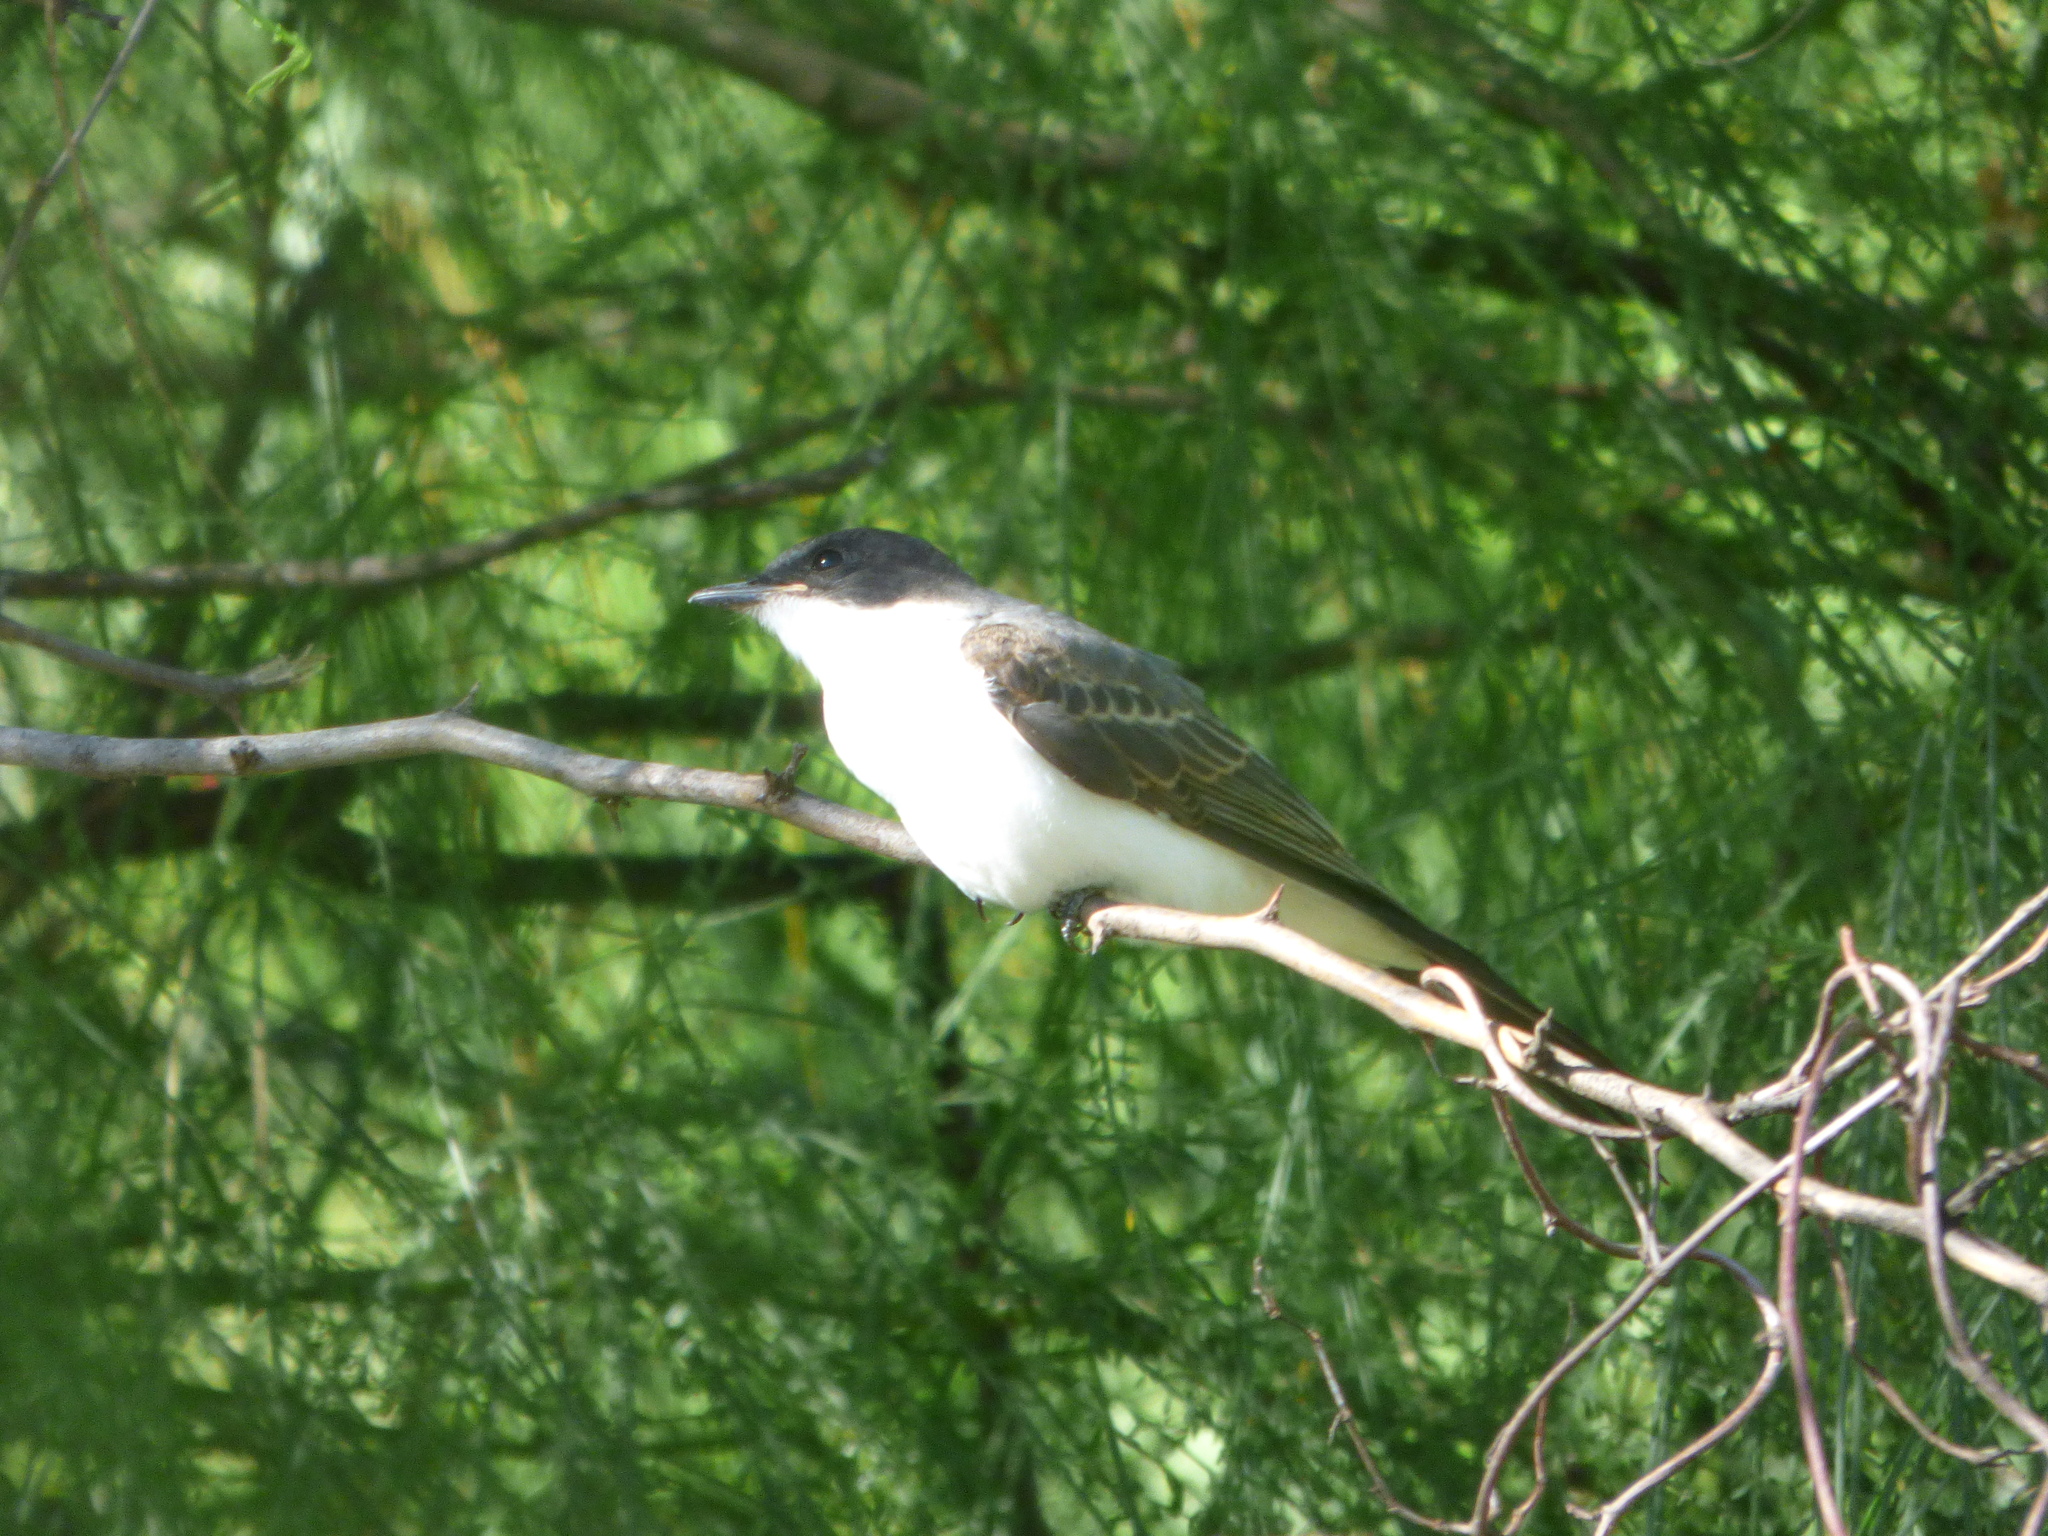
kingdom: Animalia
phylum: Chordata
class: Aves
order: Passeriformes
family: Tyrannidae
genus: Tyrannus
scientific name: Tyrannus savana
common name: Fork-tailed flycatcher
